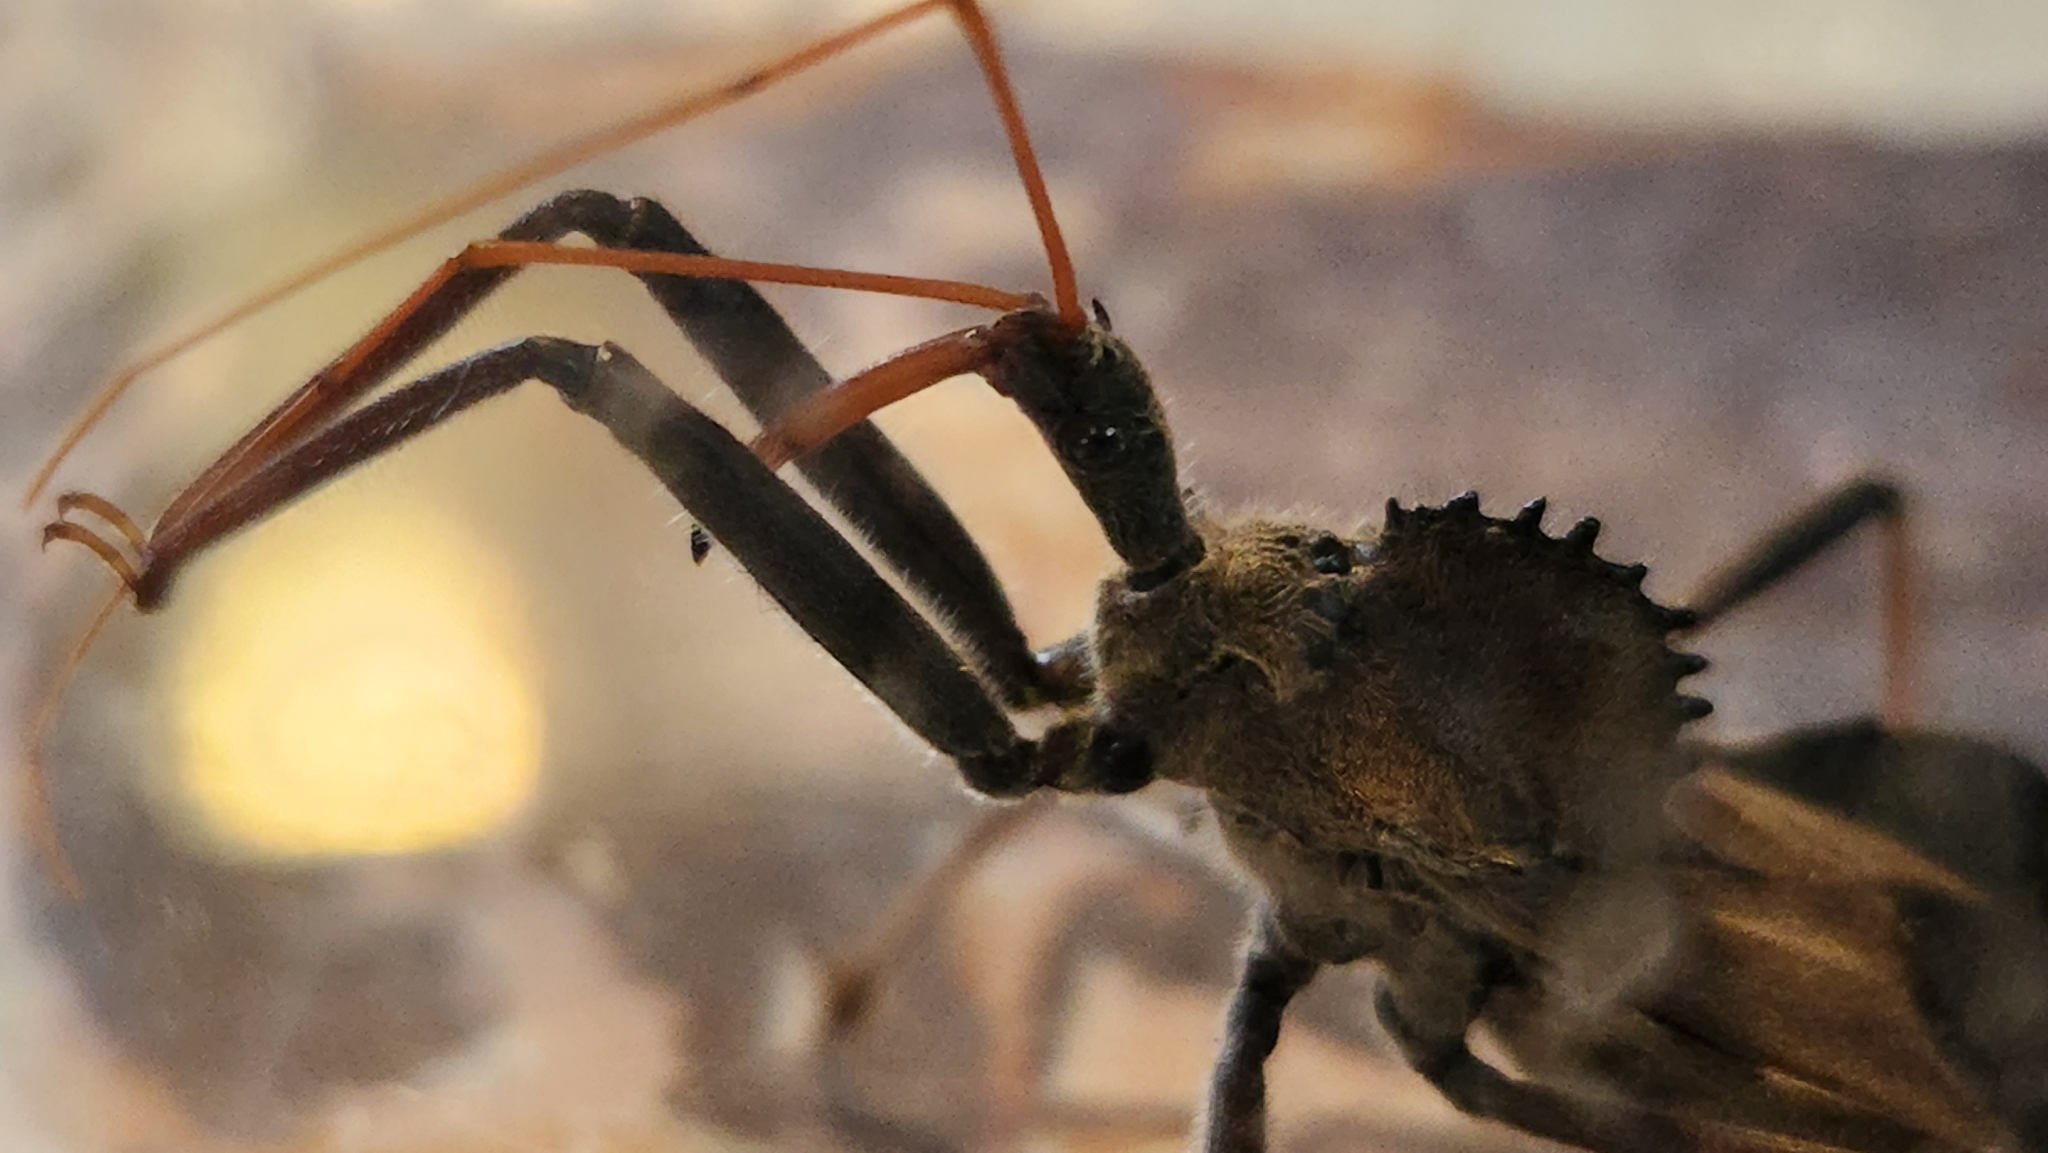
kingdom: Animalia
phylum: Arthropoda
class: Insecta
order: Hemiptera
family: Reduviidae
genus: Arilus
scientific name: Arilus cristatus
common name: North american wheel bug
